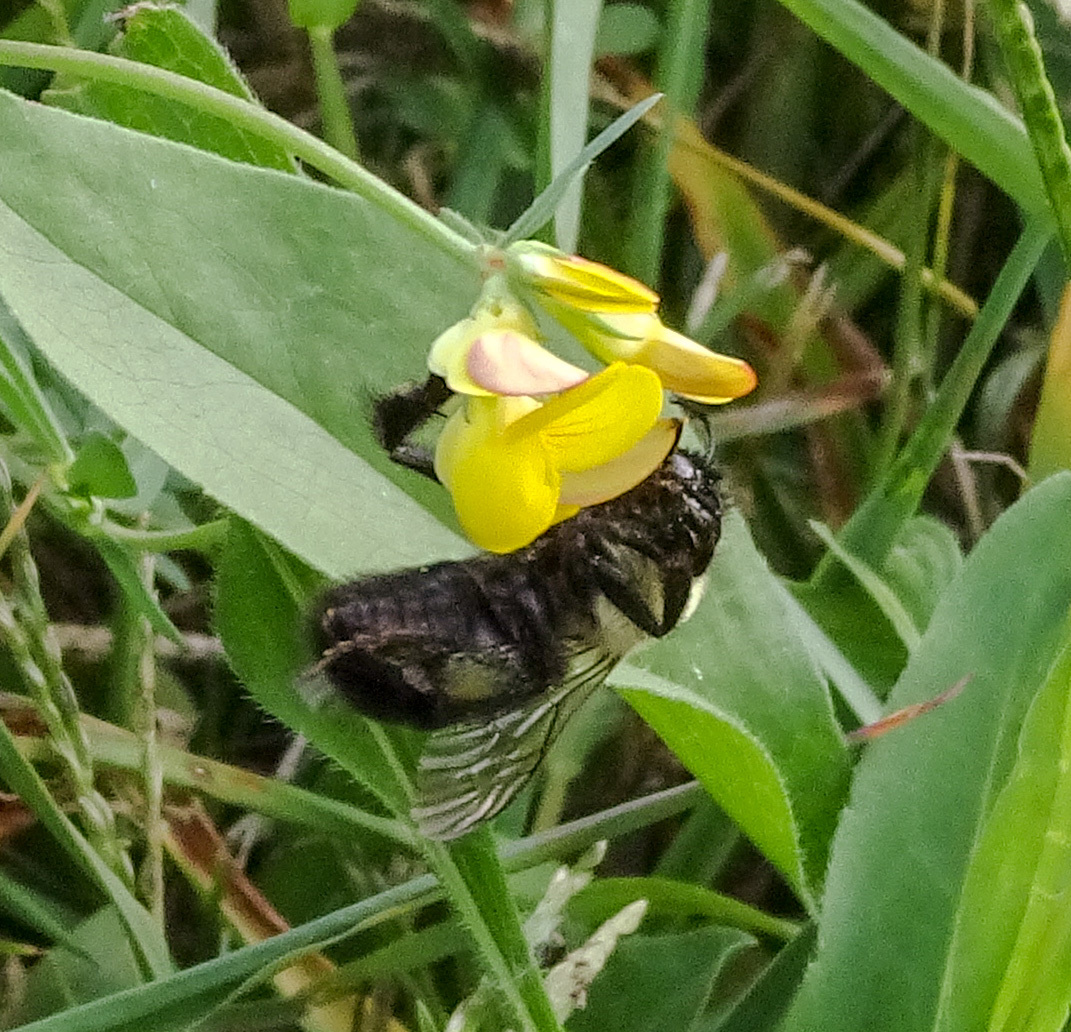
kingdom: Animalia
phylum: Arthropoda
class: Insecta
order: Hymenoptera
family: Apidae
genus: Bombus
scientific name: Bombus impatiens
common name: Common eastern bumble bee
